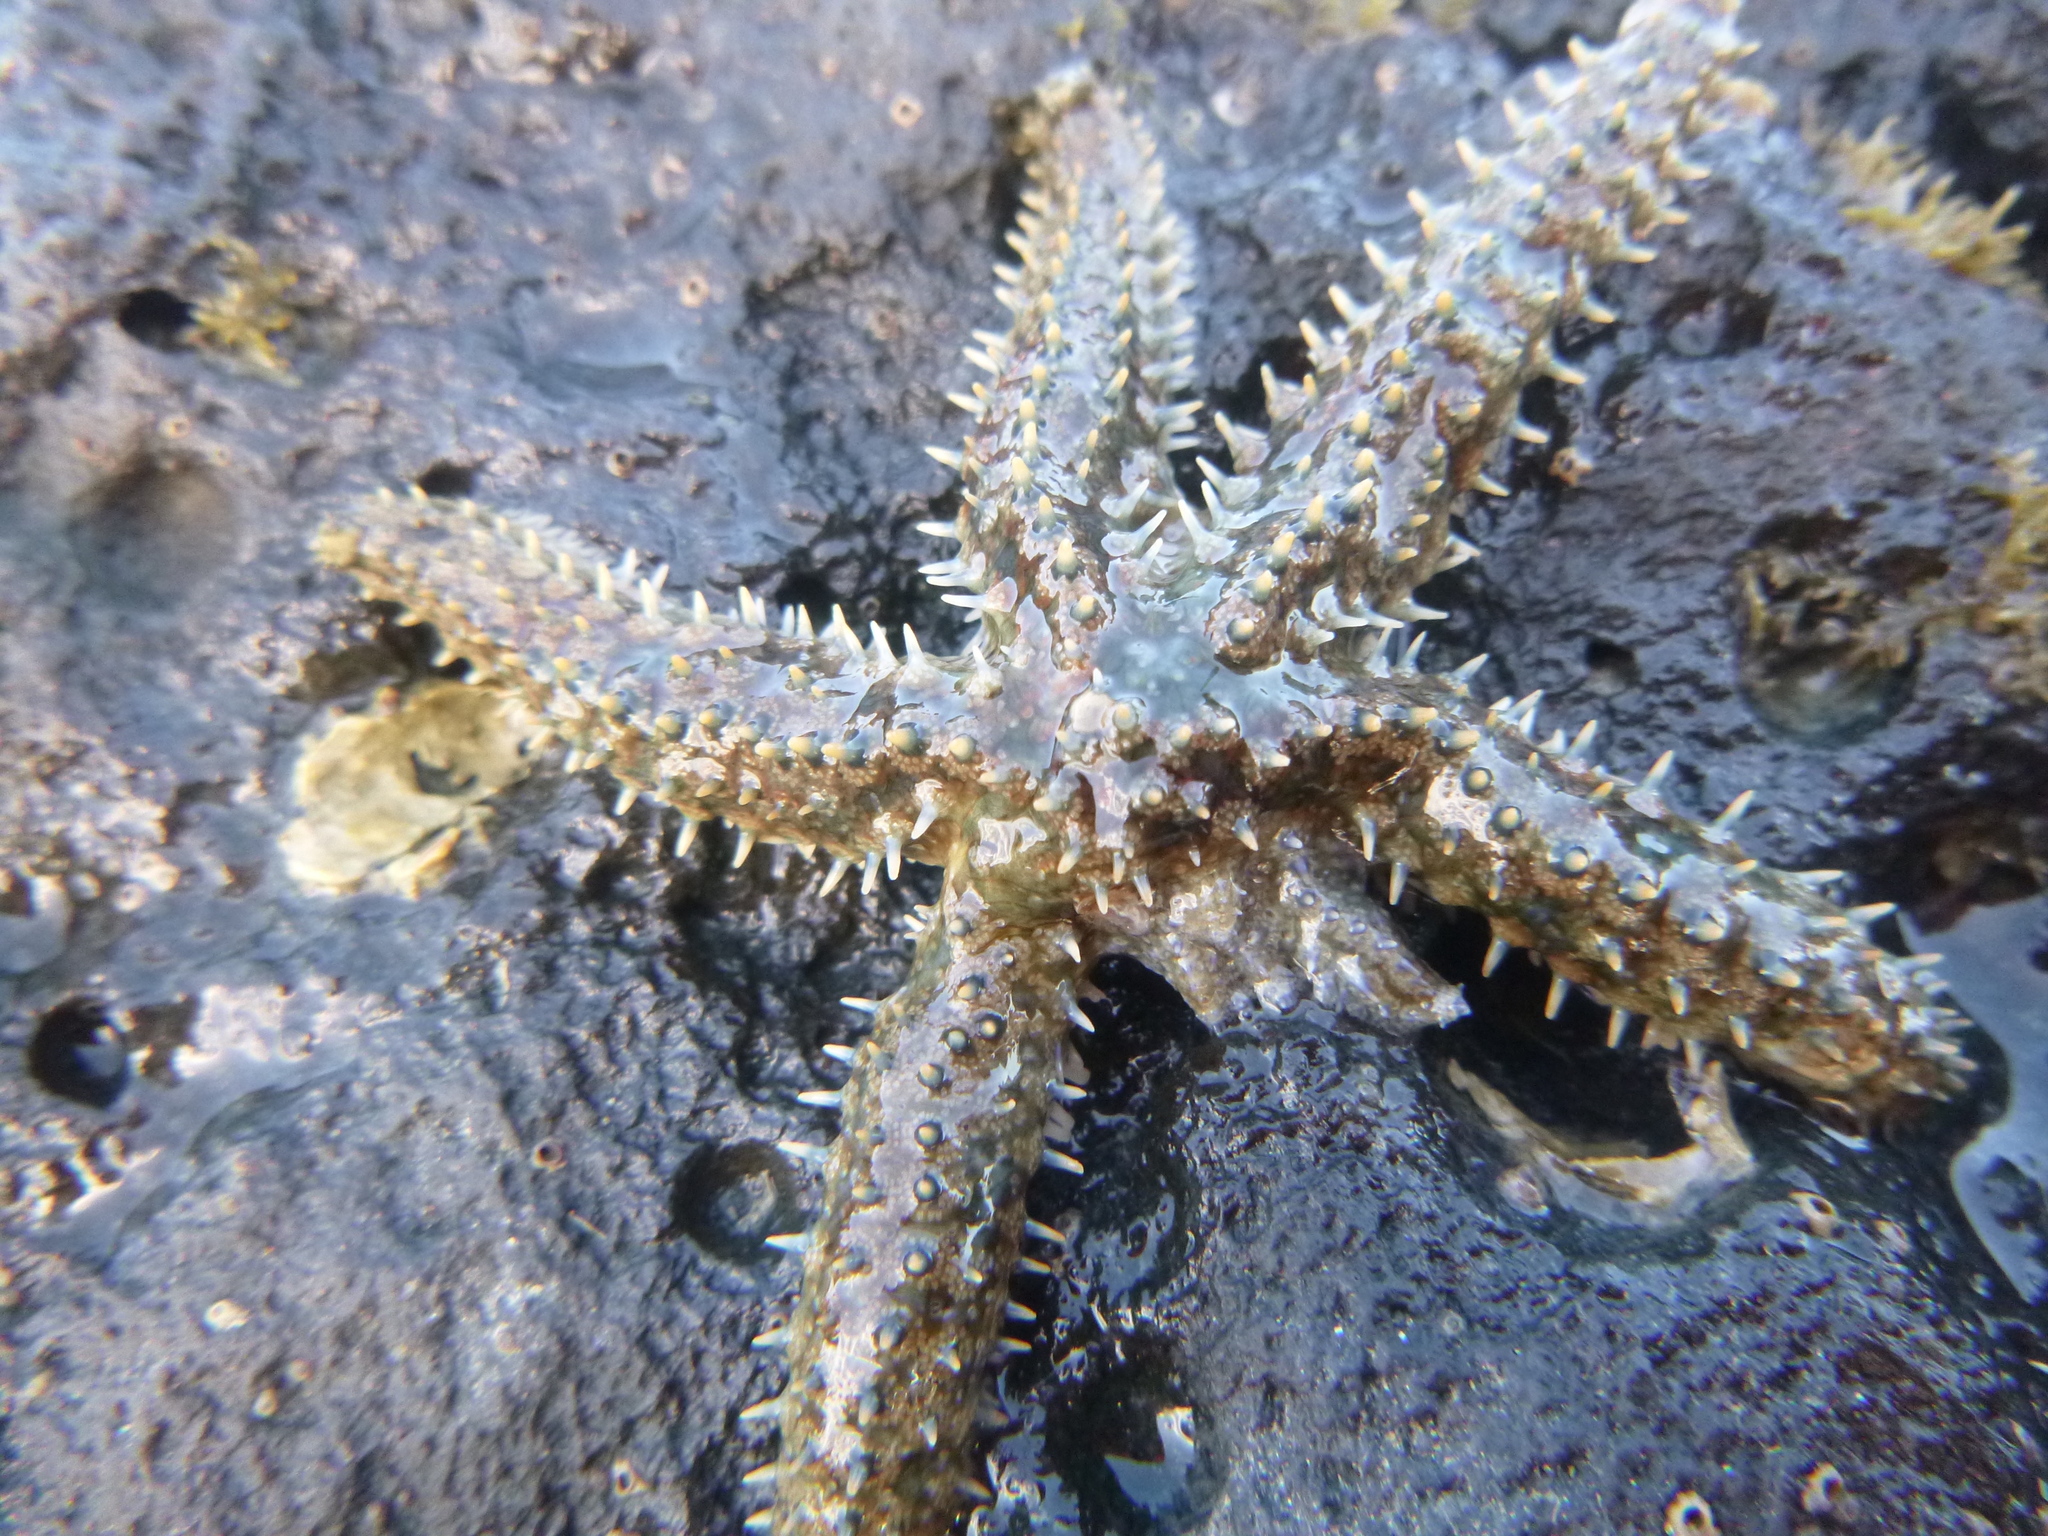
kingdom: Animalia
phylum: Echinodermata
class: Asteroidea
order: Forcipulatida
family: Asteriidae
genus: Coscinasterias
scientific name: Coscinasterias muricata
